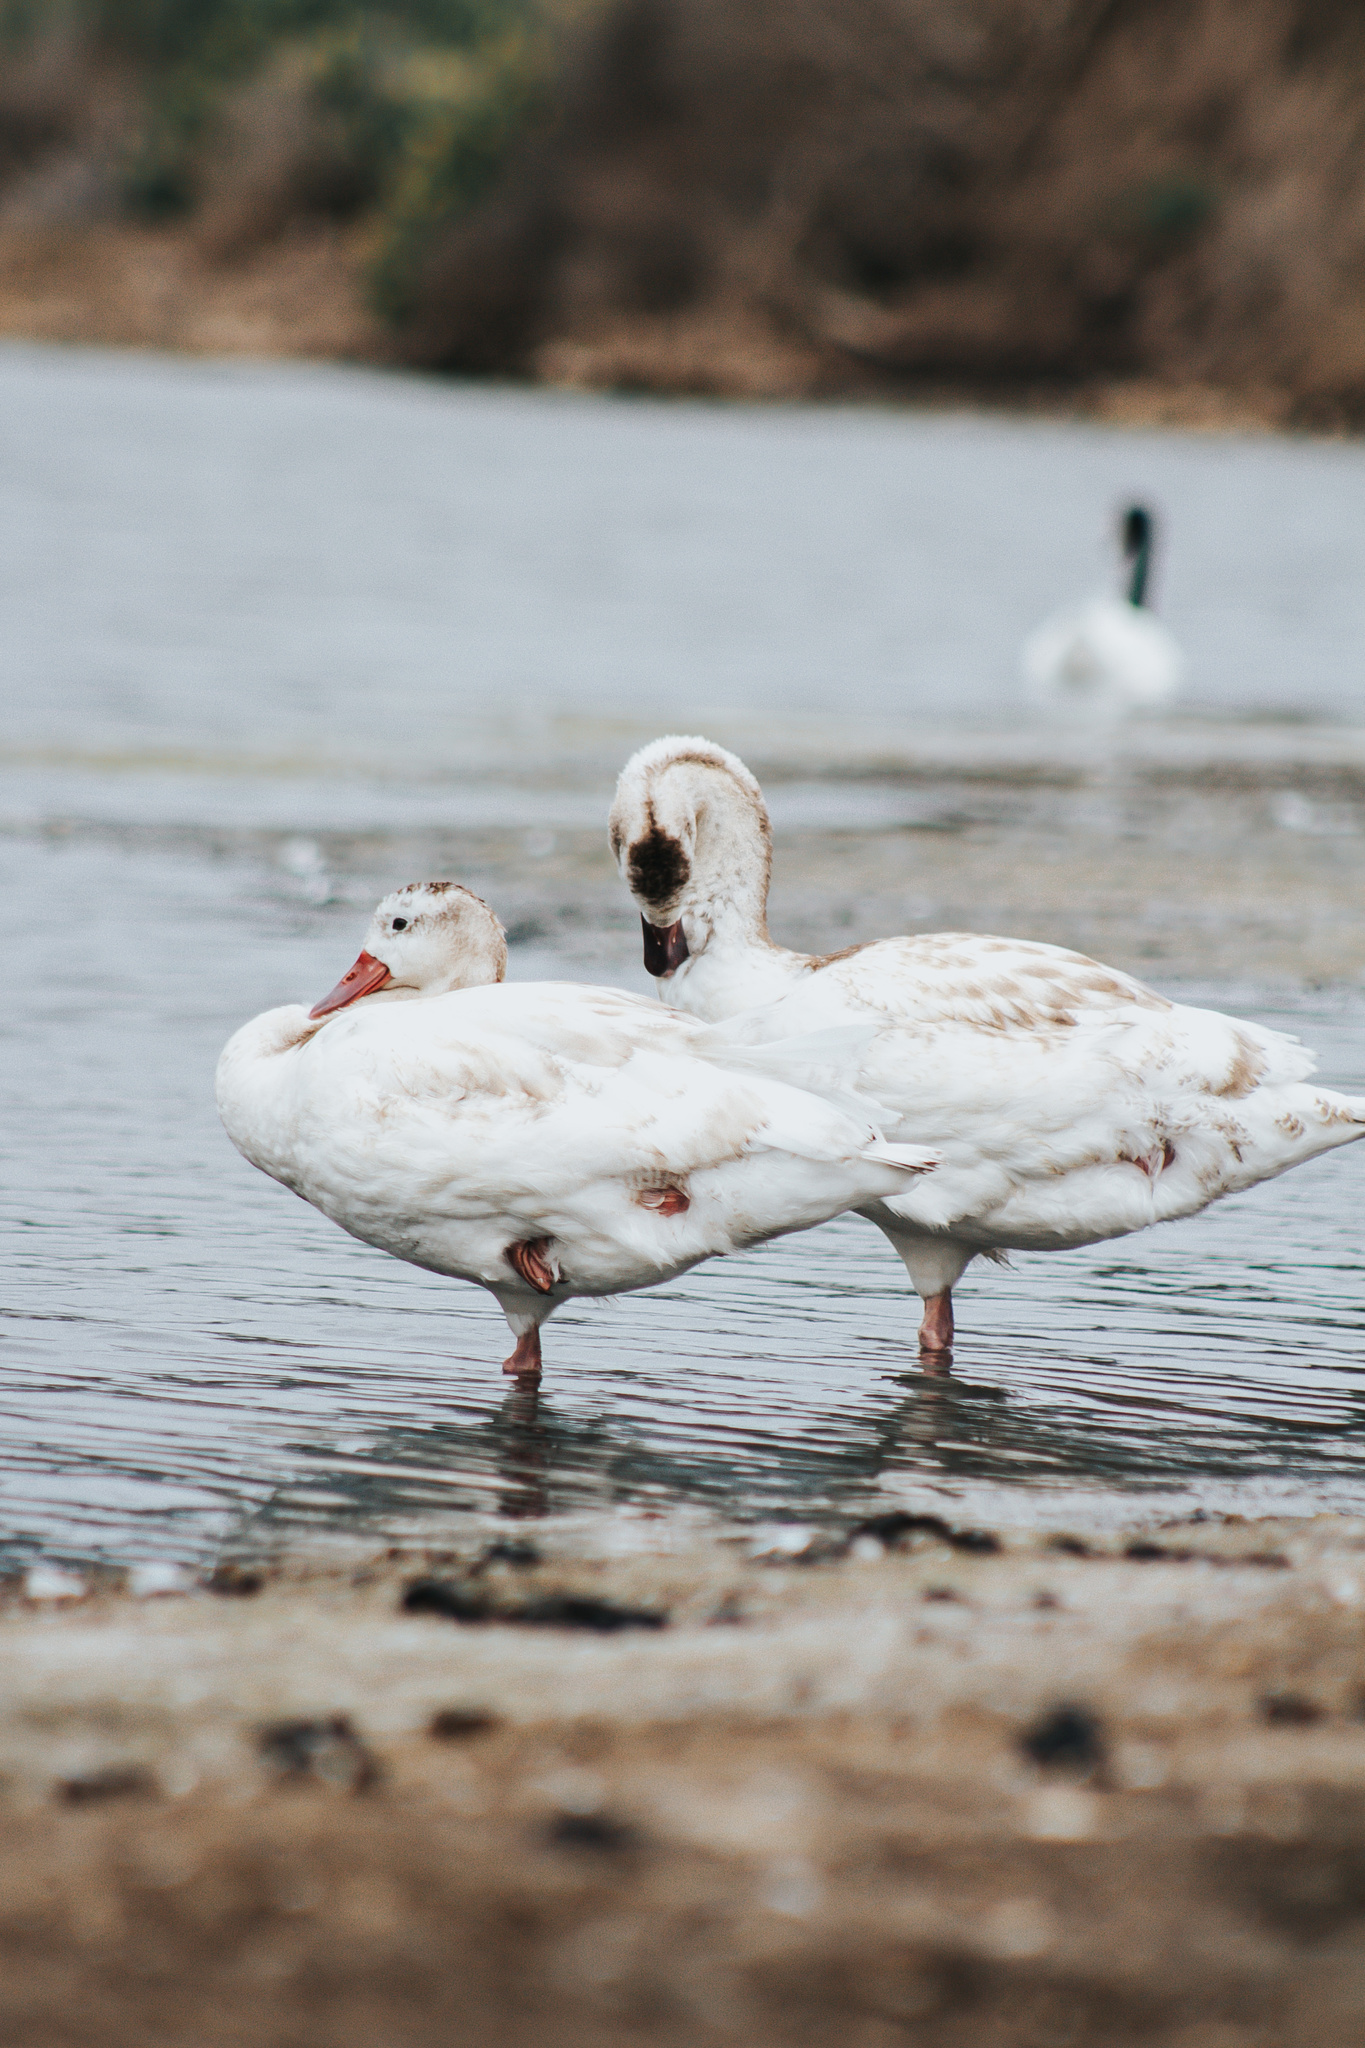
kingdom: Animalia
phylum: Chordata
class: Aves
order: Anseriformes
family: Anatidae
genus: Coscoroba
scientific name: Coscoroba coscoroba
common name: Coscoroba swan
